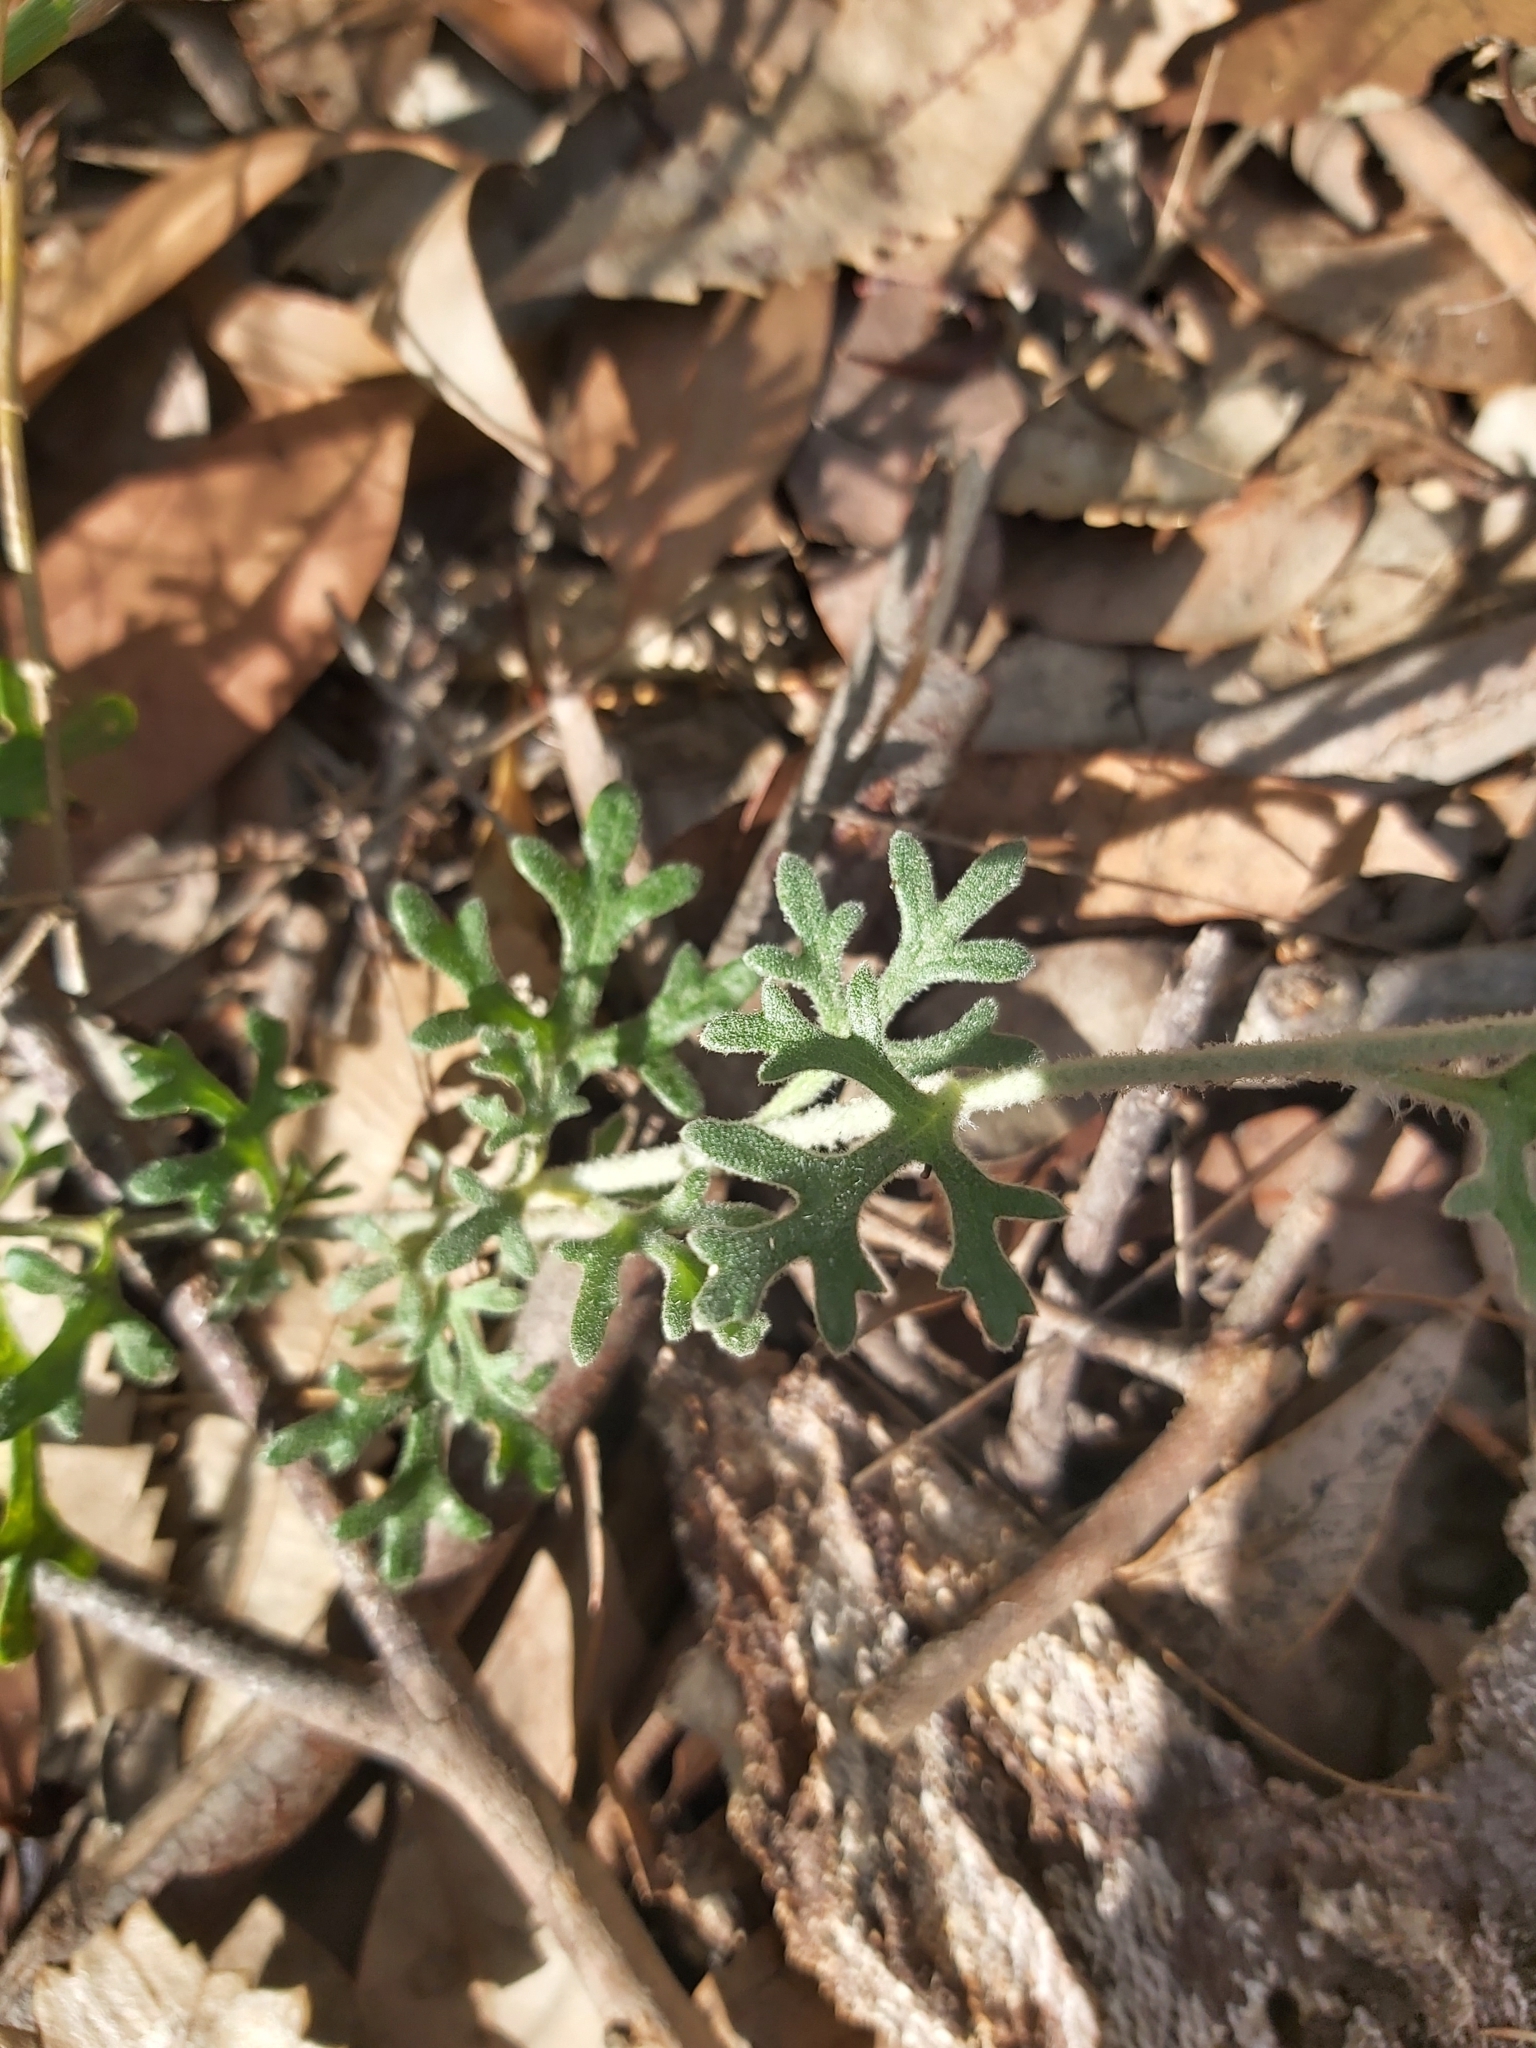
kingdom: Plantae
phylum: Tracheophyta
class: Magnoliopsida
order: Apiales
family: Apiaceae
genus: Actinotus
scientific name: Actinotus helianthi
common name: Flannel-flower
